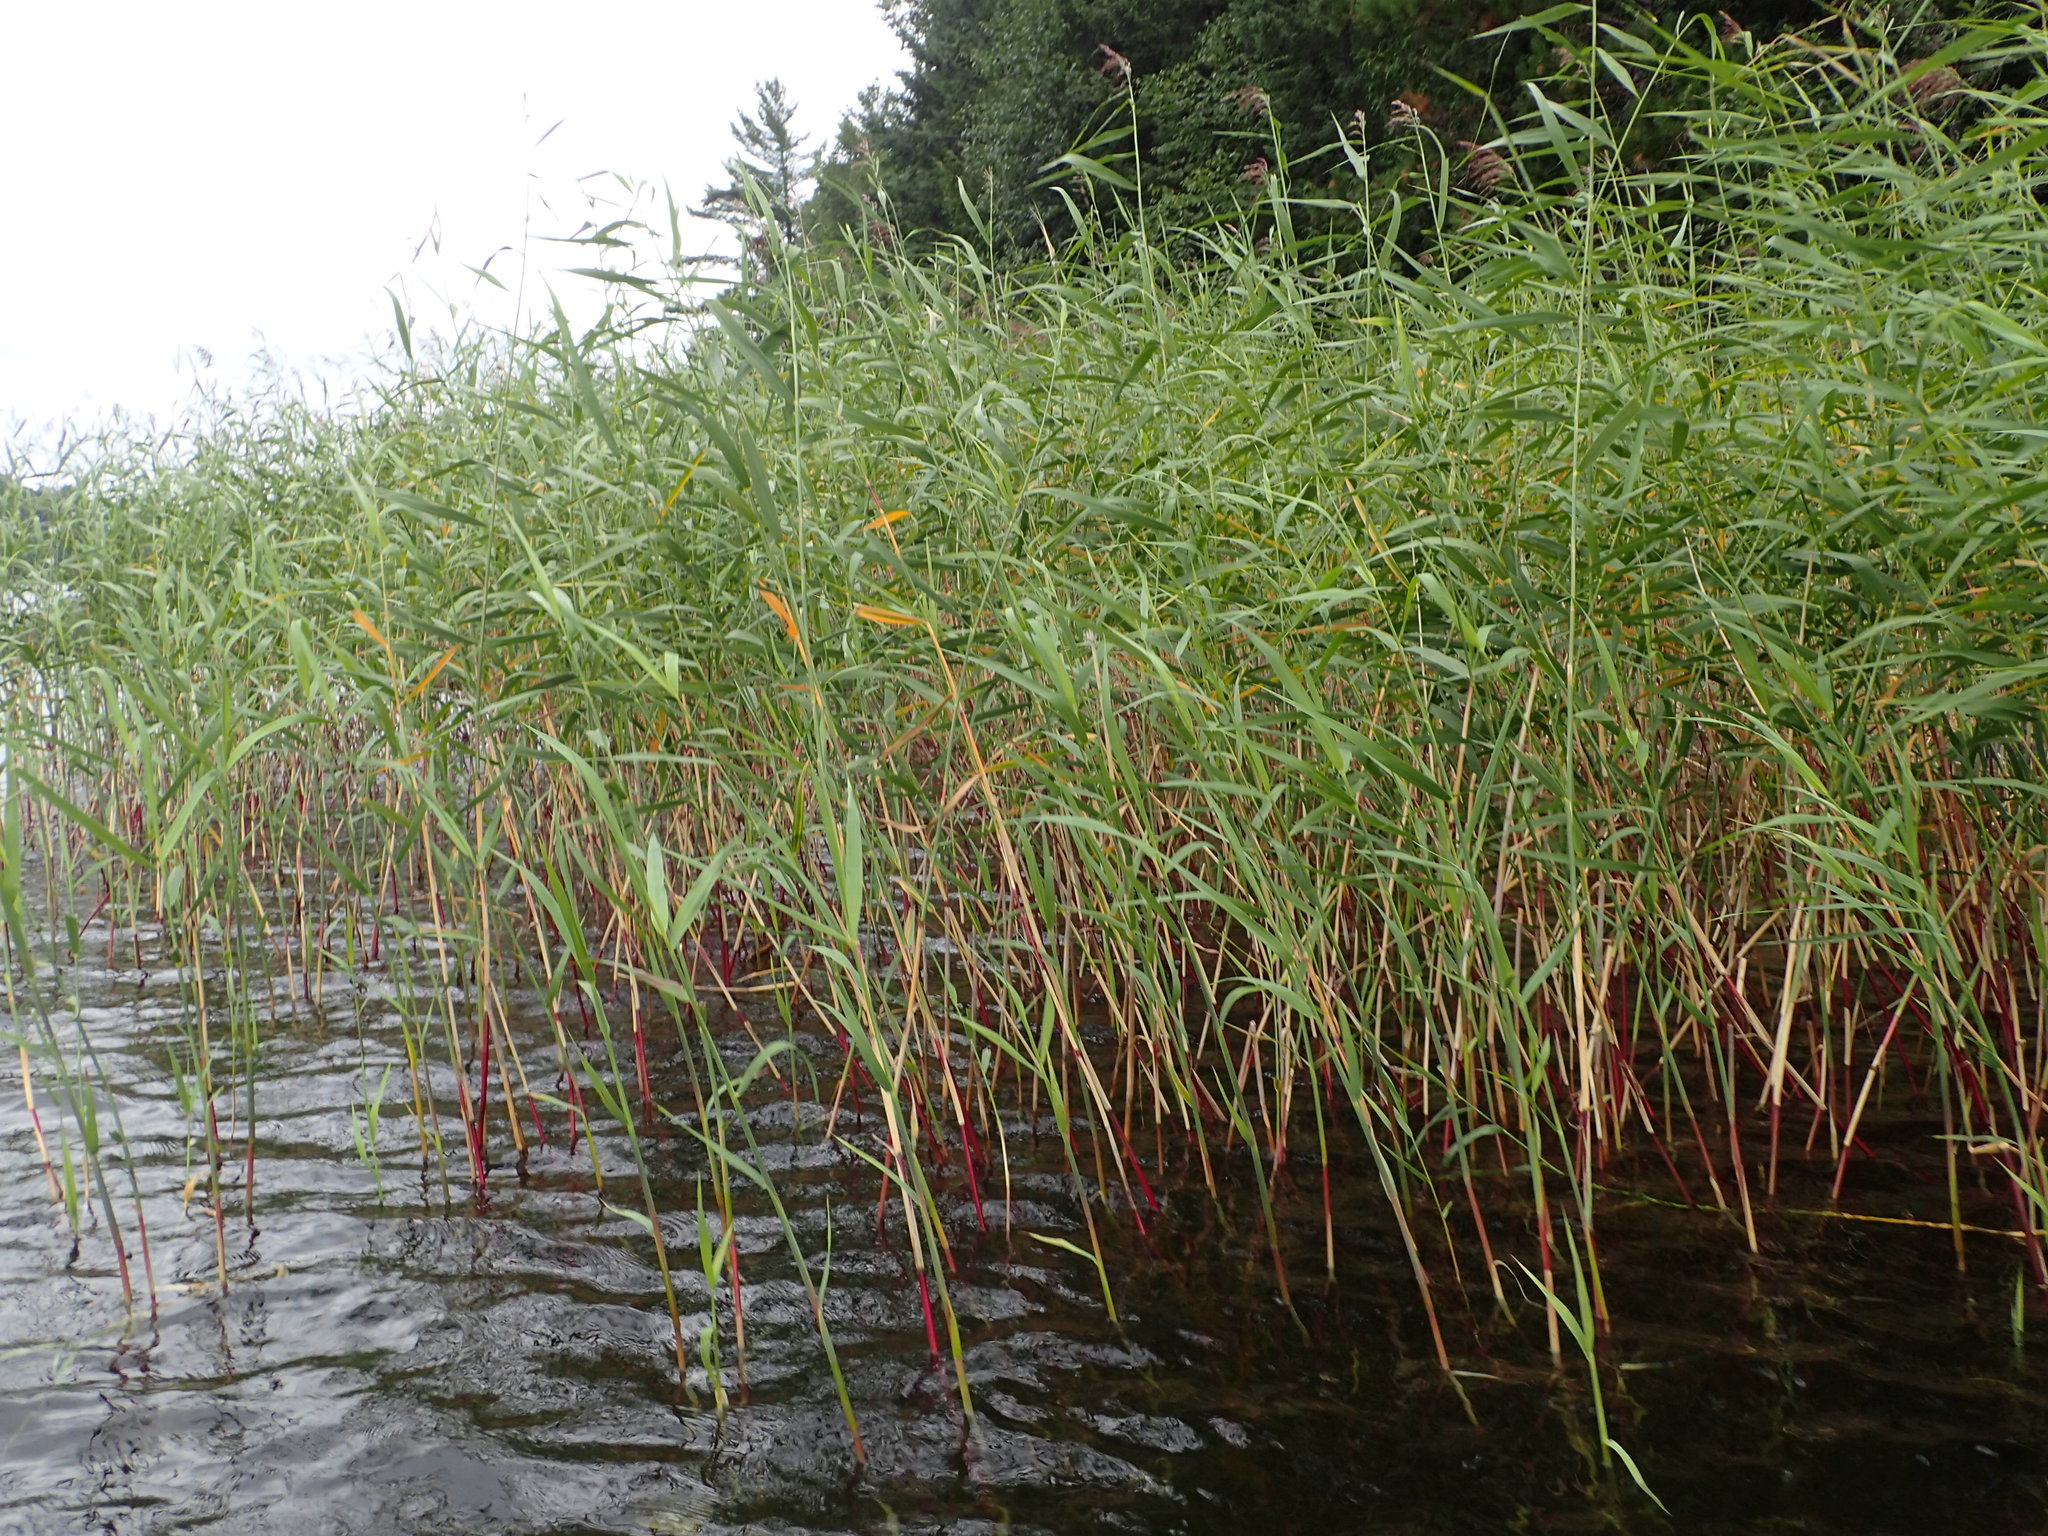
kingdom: Plantae
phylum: Tracheophyta
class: Liliopsida
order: Poales
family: Poaceae
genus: Phragmites
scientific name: Phragmites australis
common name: Common reed
